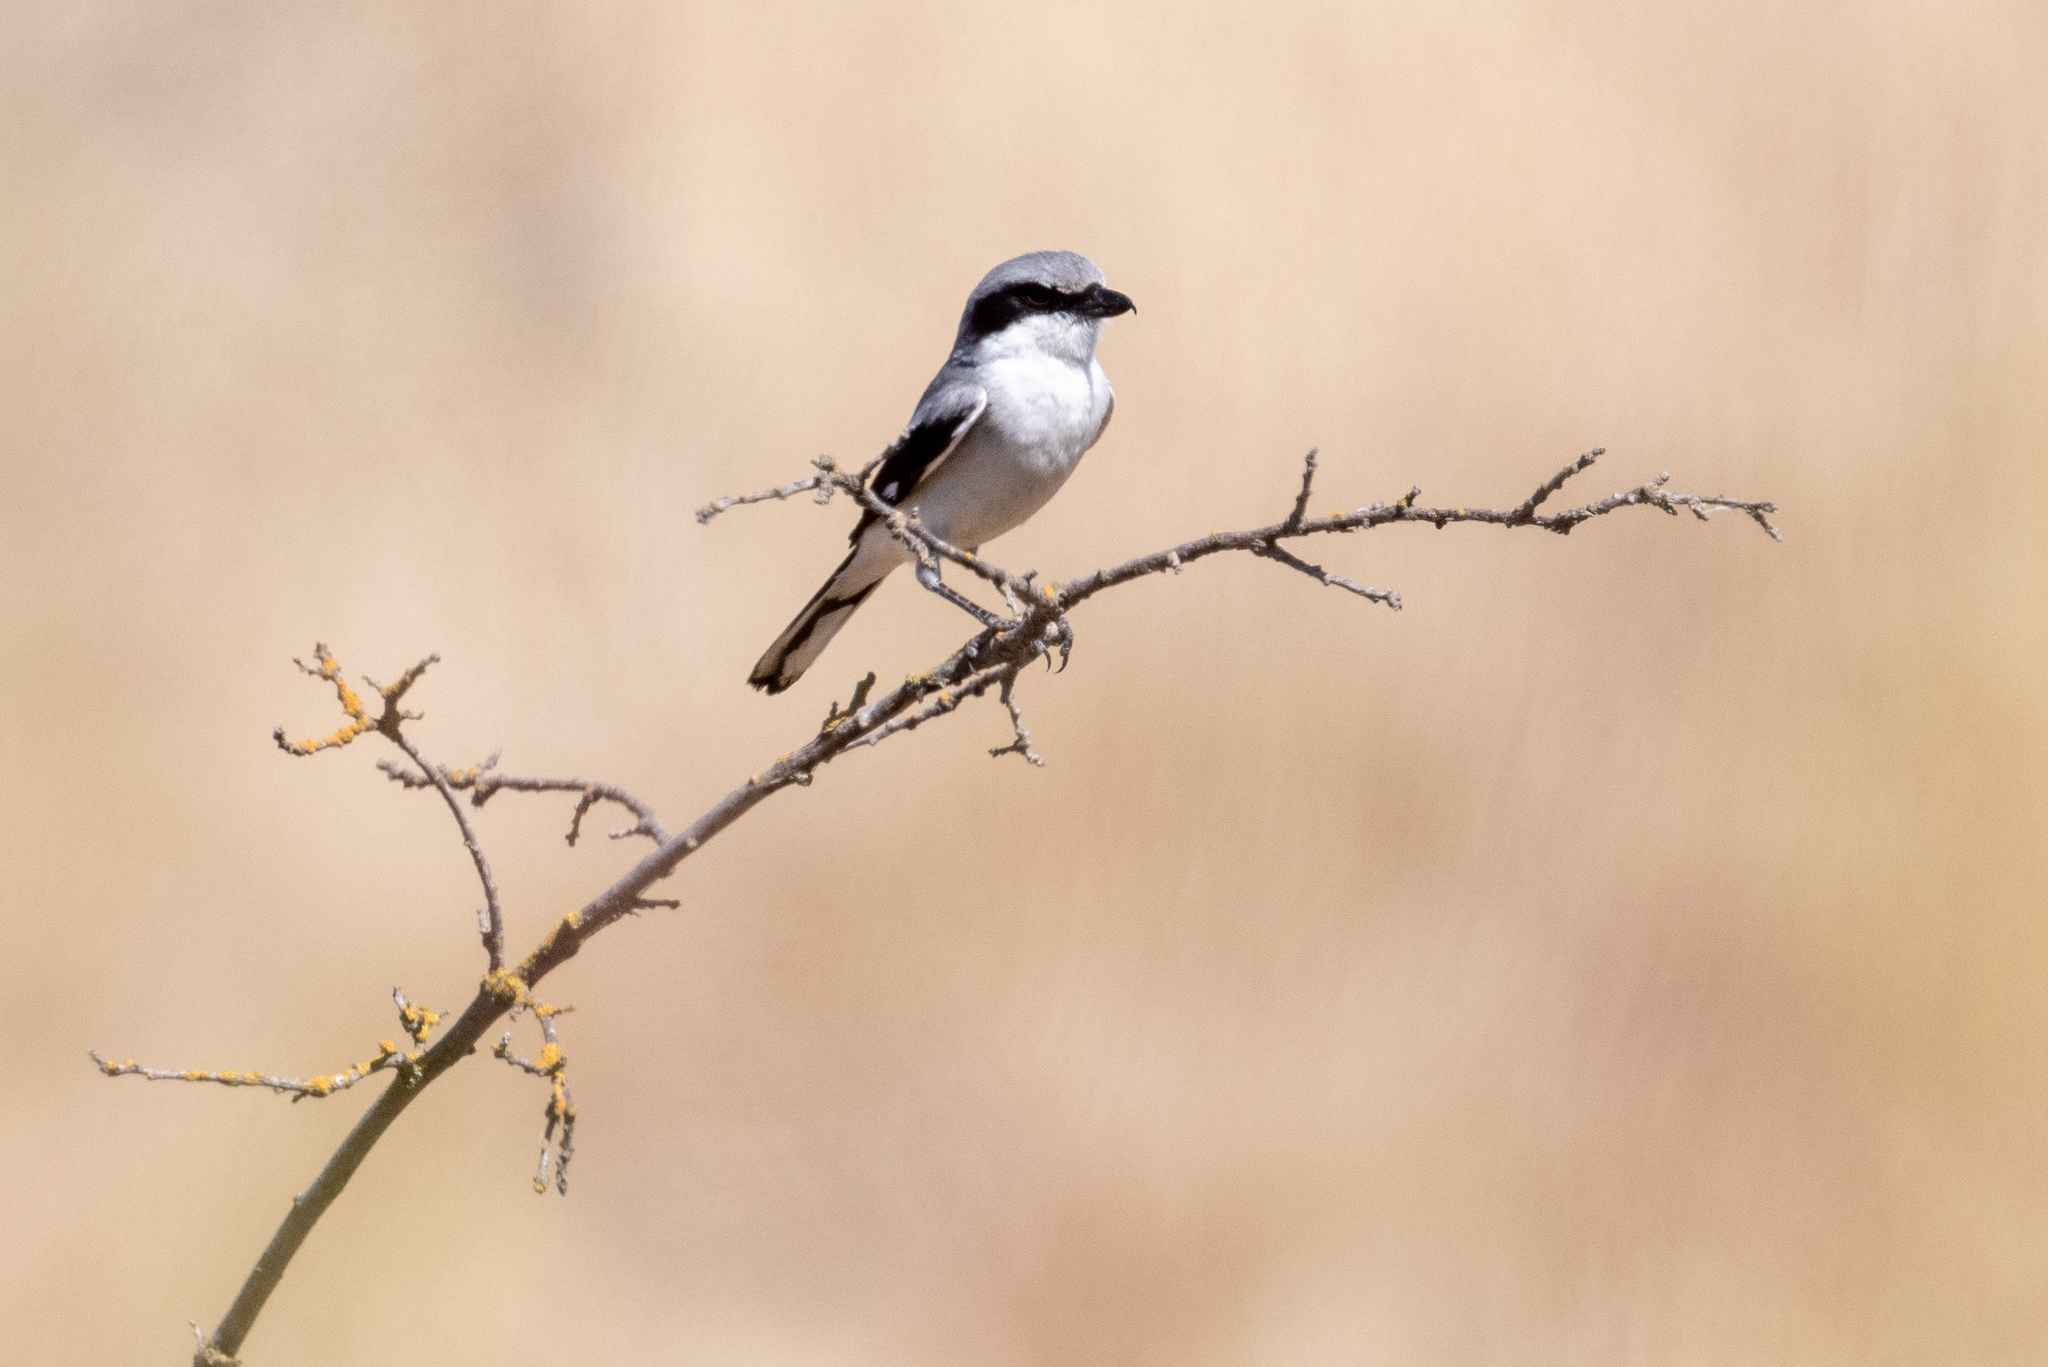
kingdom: Animalia
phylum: Chordata
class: Aves
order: Passeriformes
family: Laniidae
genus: Lanius
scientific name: Lanius ludovicianus
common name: Loggerhead shrike
